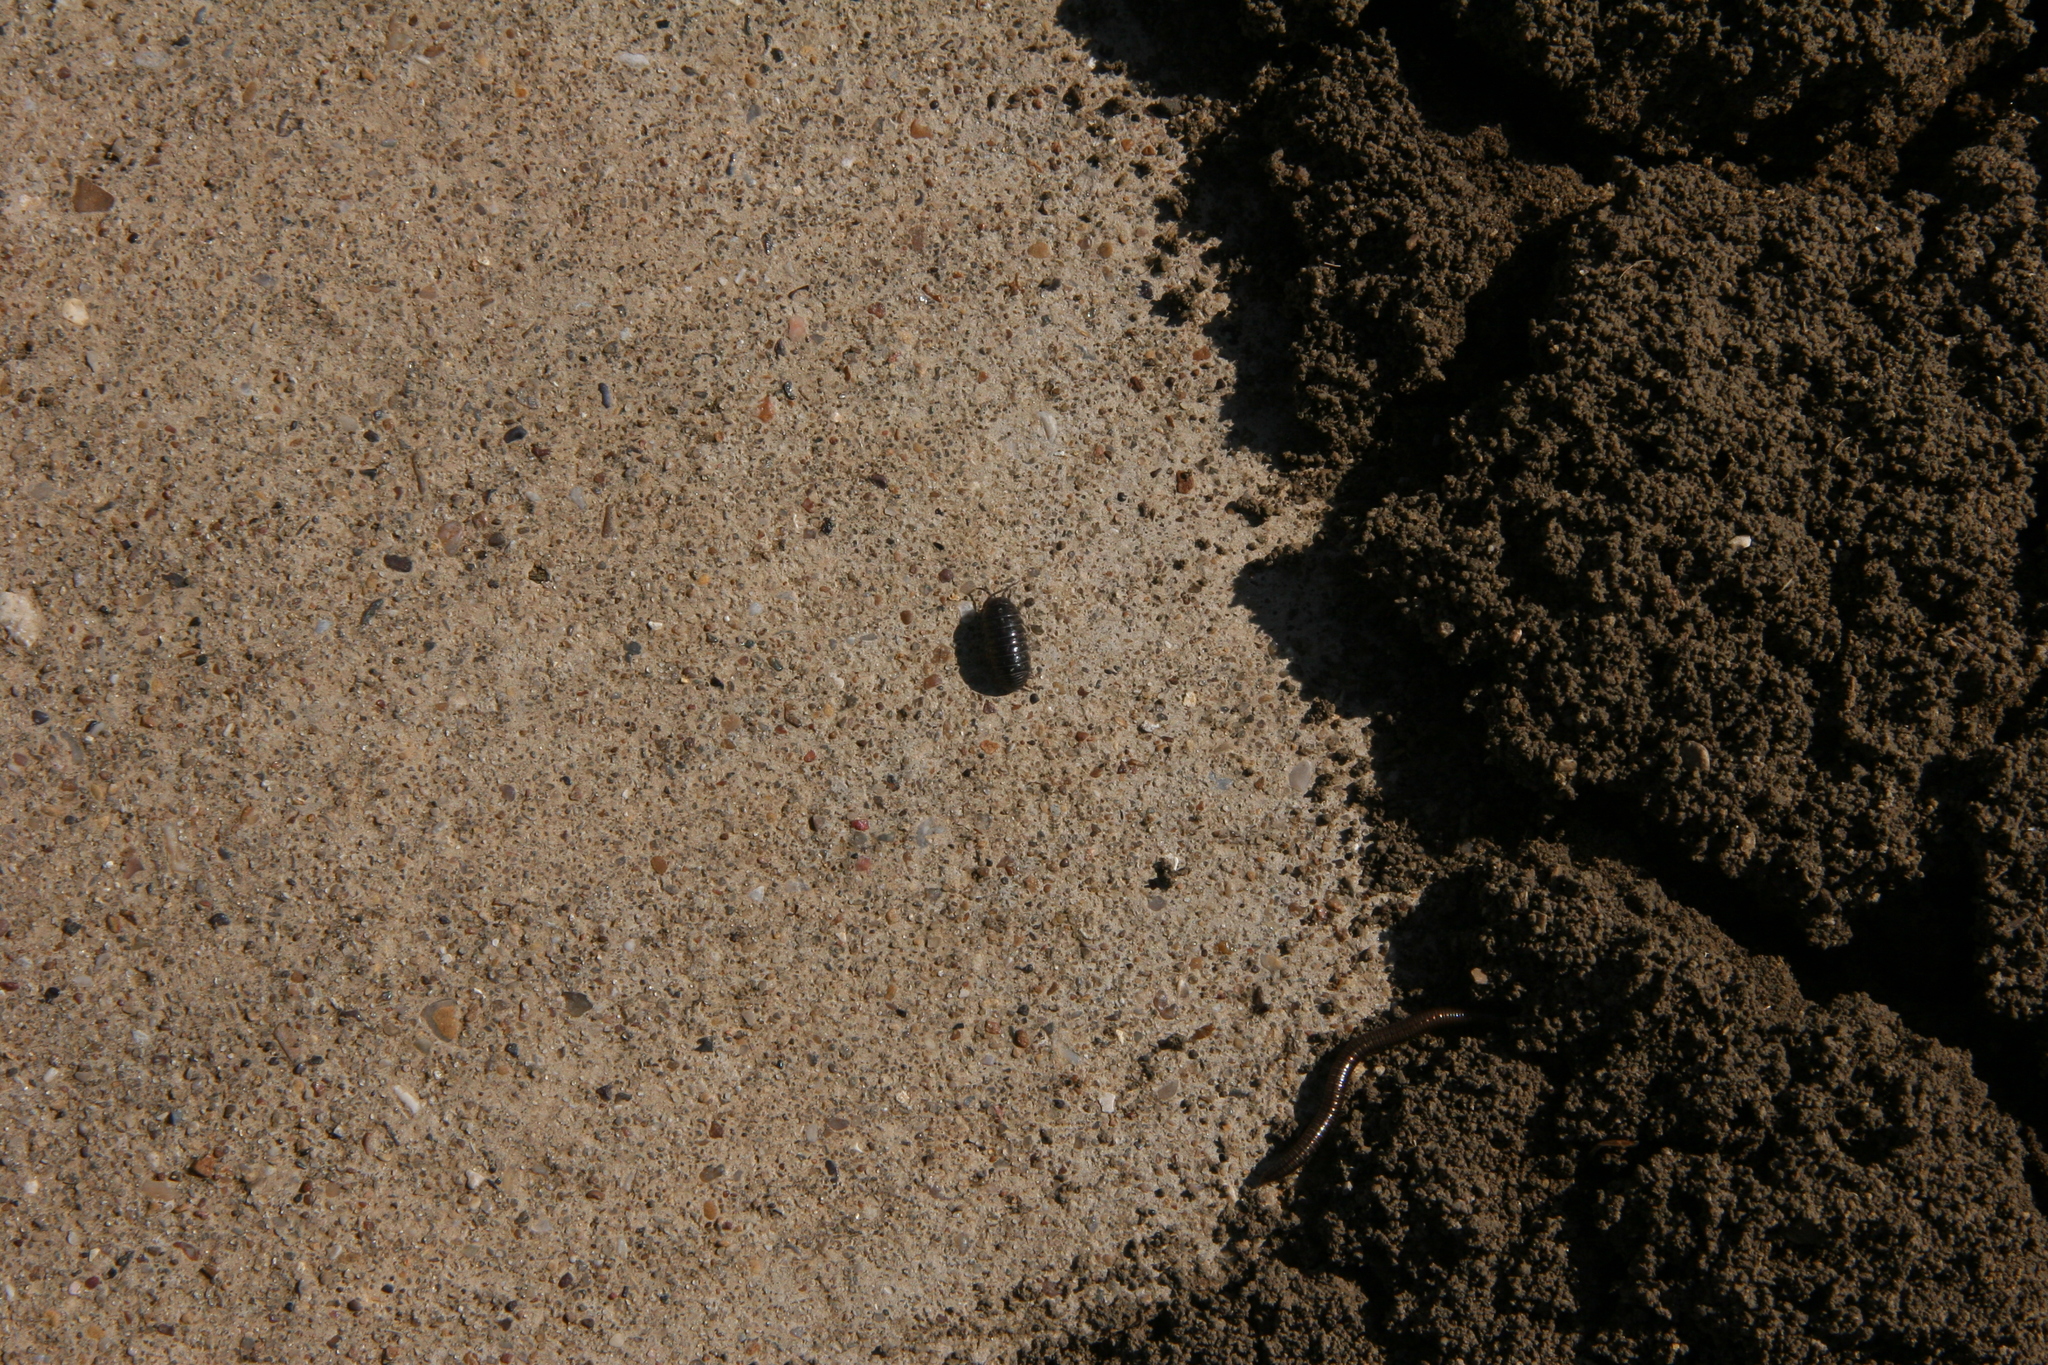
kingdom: Animalia
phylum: Arthropoda
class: Malacostraca
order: Isopoda
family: Armadillidiidae
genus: Armadillidium
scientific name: Armadillidium vulgare
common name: Common pill woodlouse
